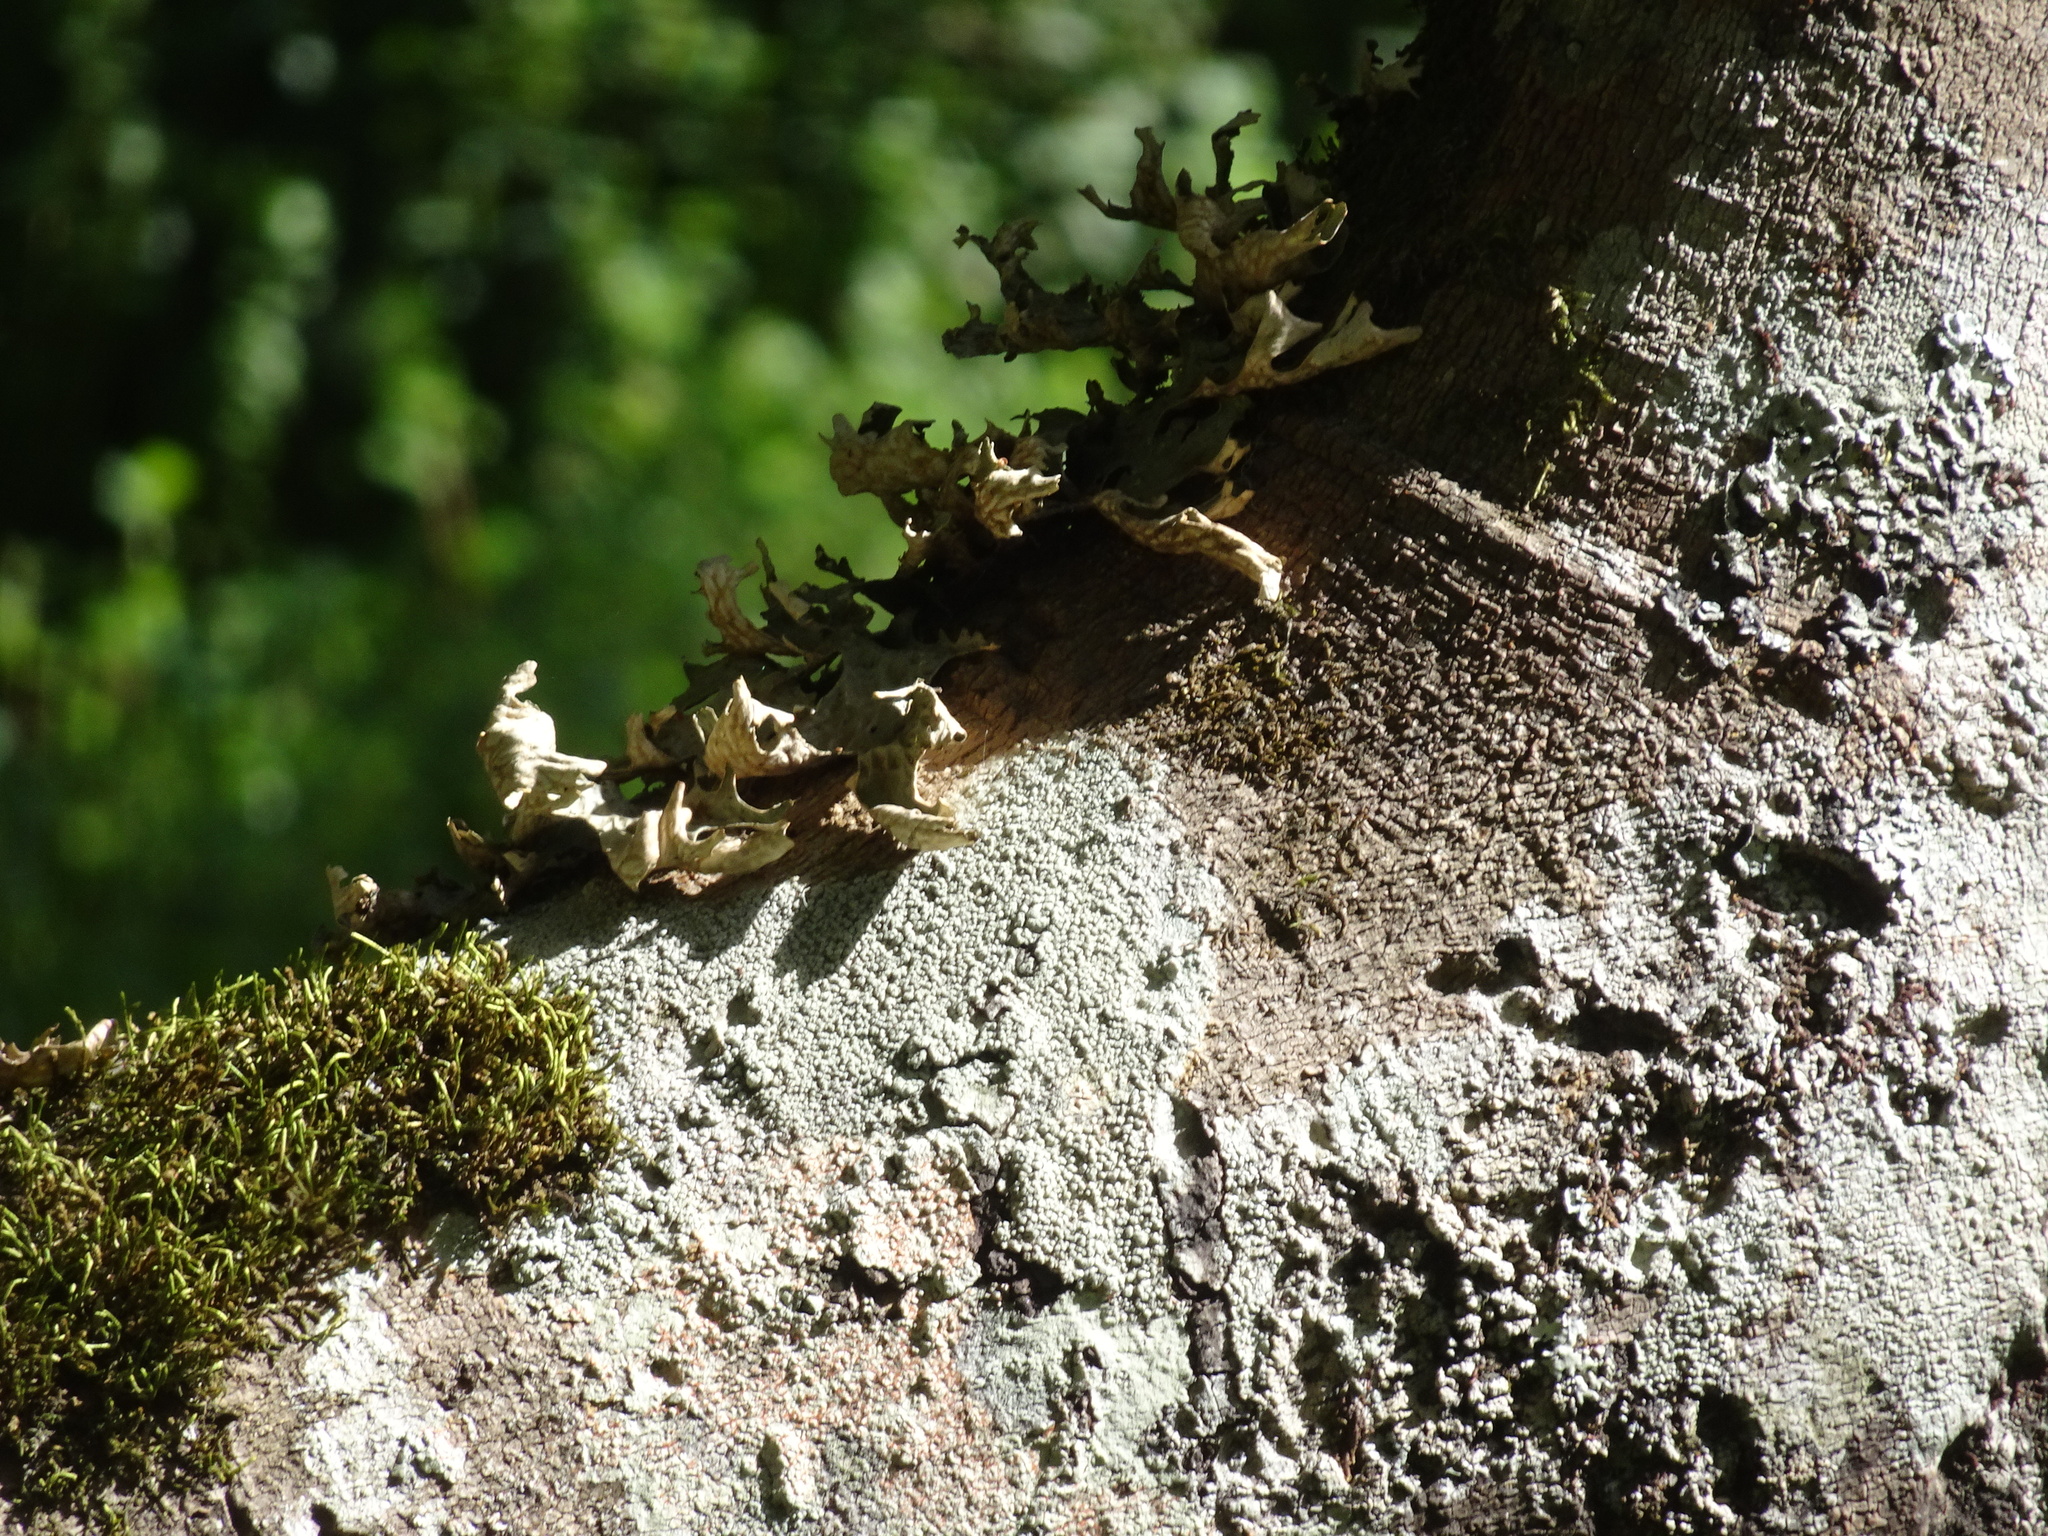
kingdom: Fungi
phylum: Ascomycota
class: Lecanoromycetes
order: Peltigerales
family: Lobariaceae
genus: Lobaria
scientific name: Lobaria pulmonaria
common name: Lungwort
